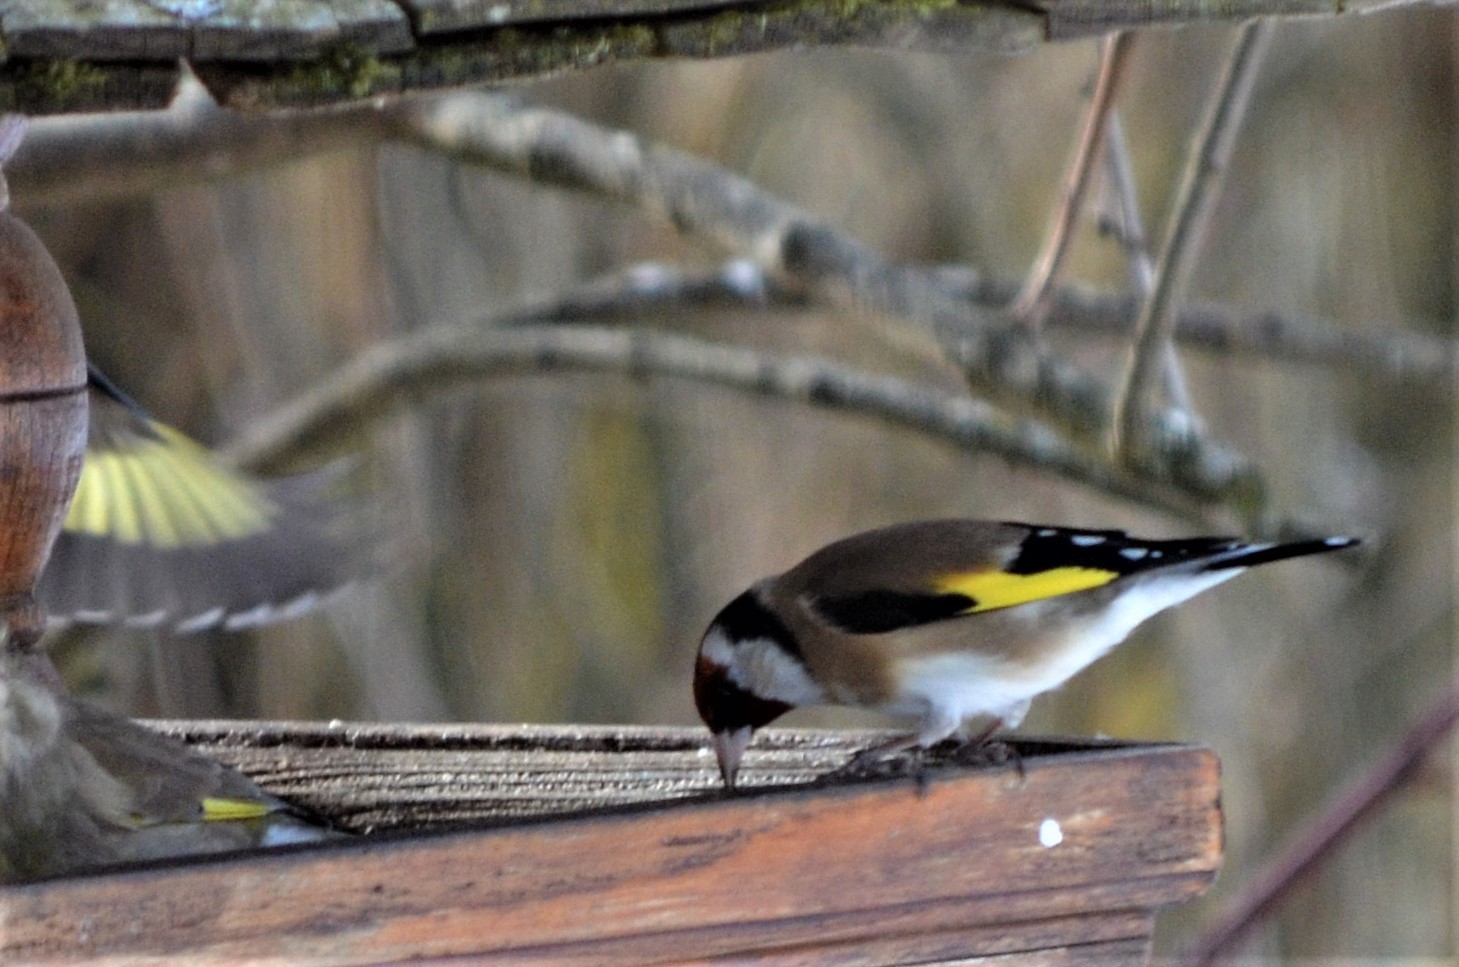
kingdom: Animalia
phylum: Chordata
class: Aves
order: Passeriformes
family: Fringillidae
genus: Carduelis
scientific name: Carduelis carduelis
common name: European goldfinch
